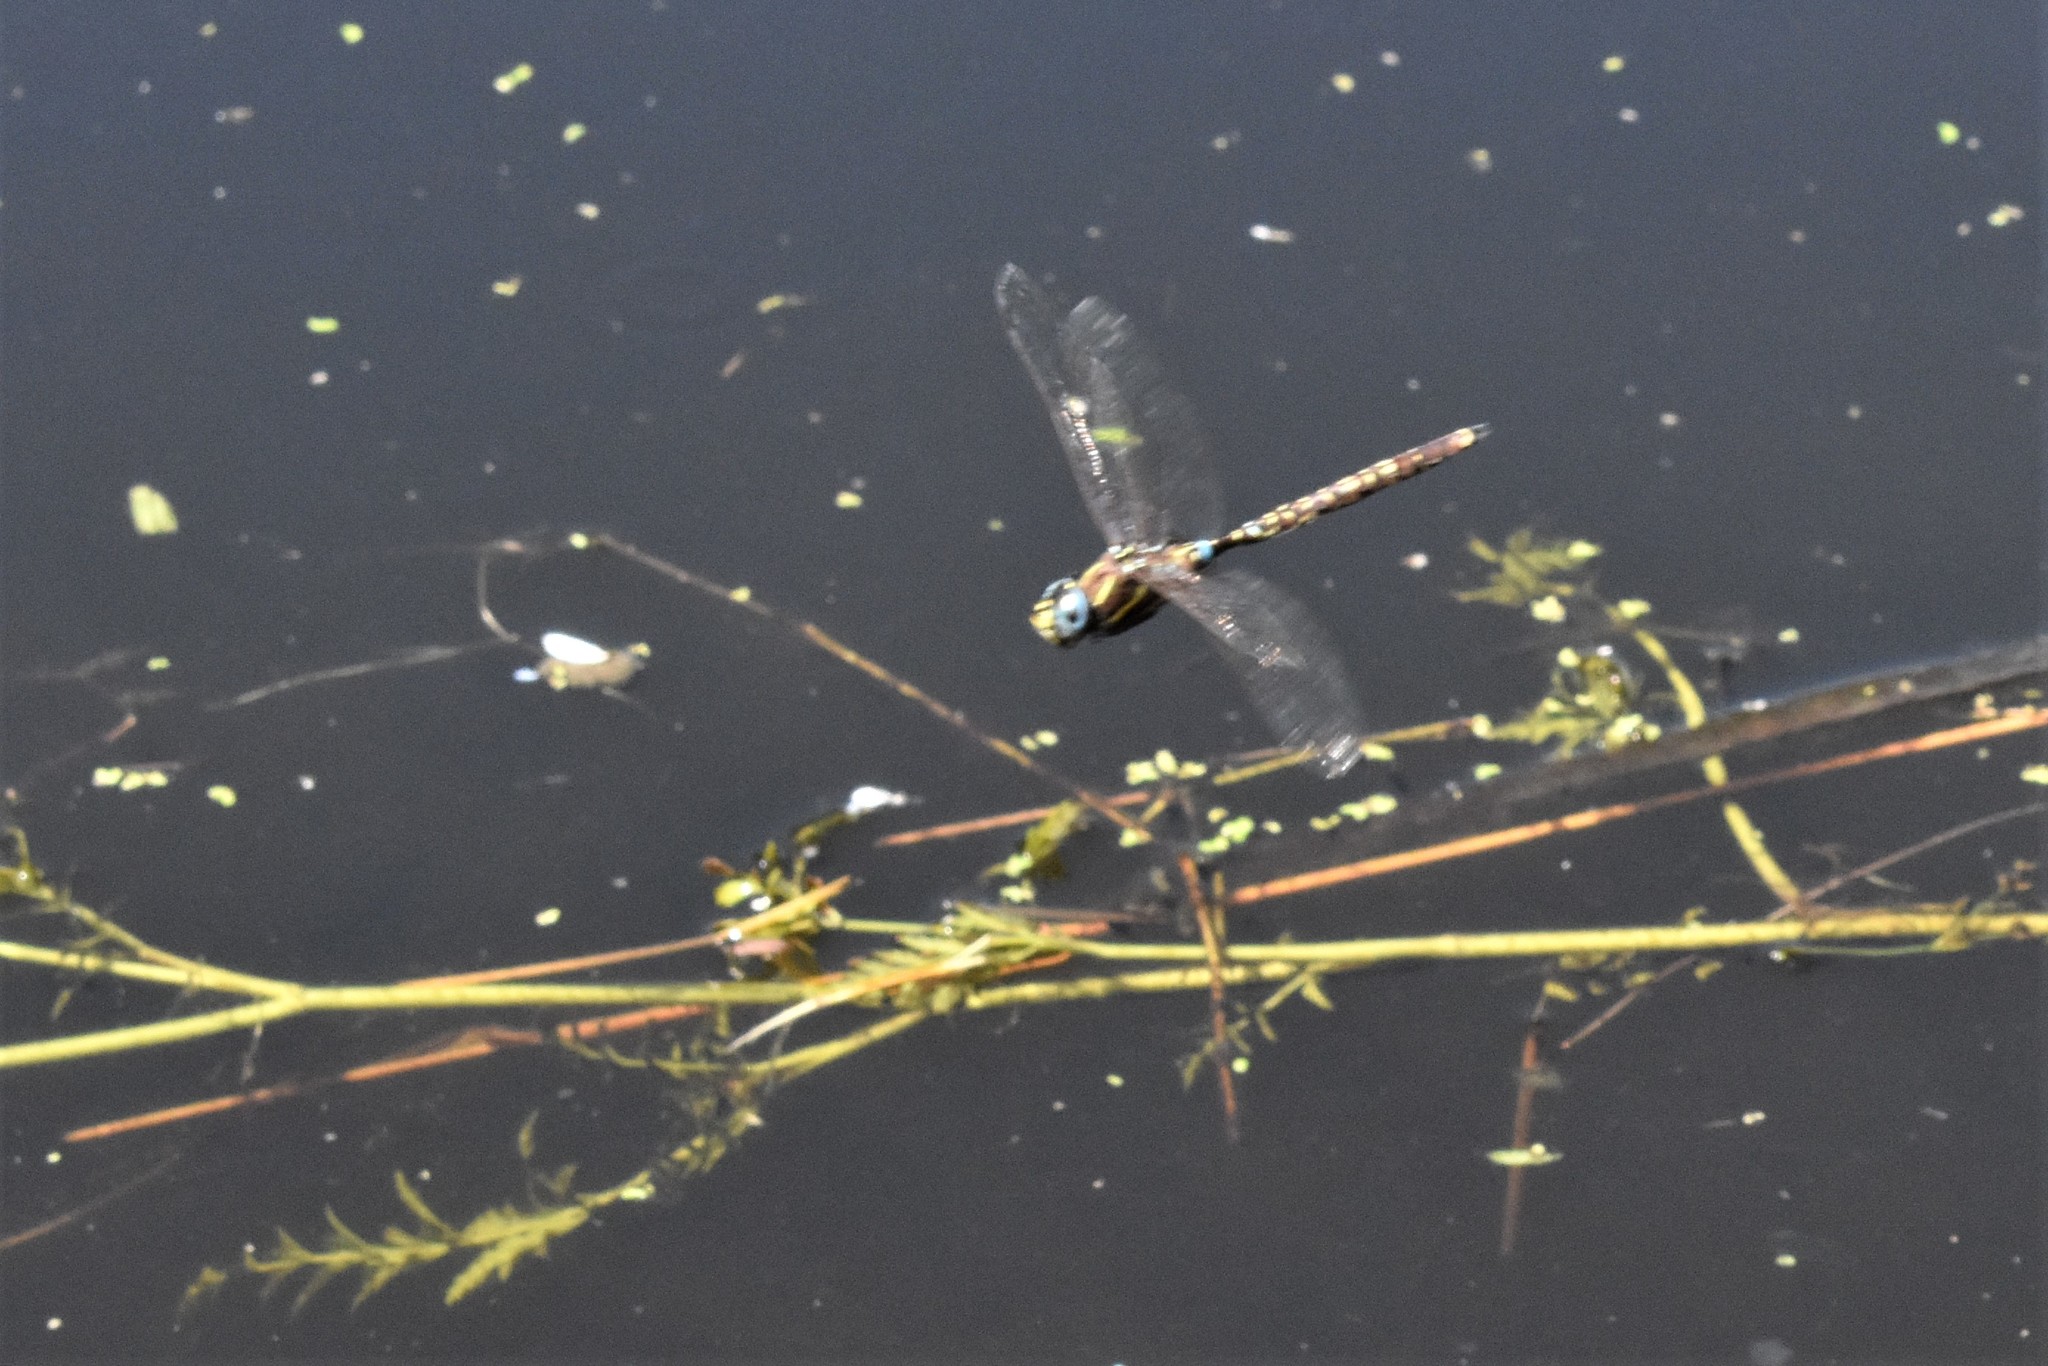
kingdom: Animalia
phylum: Arthropoda
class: Insecta
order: Odonata
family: Aeshnidae
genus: Aeshna
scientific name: Aeshna brevistyla
